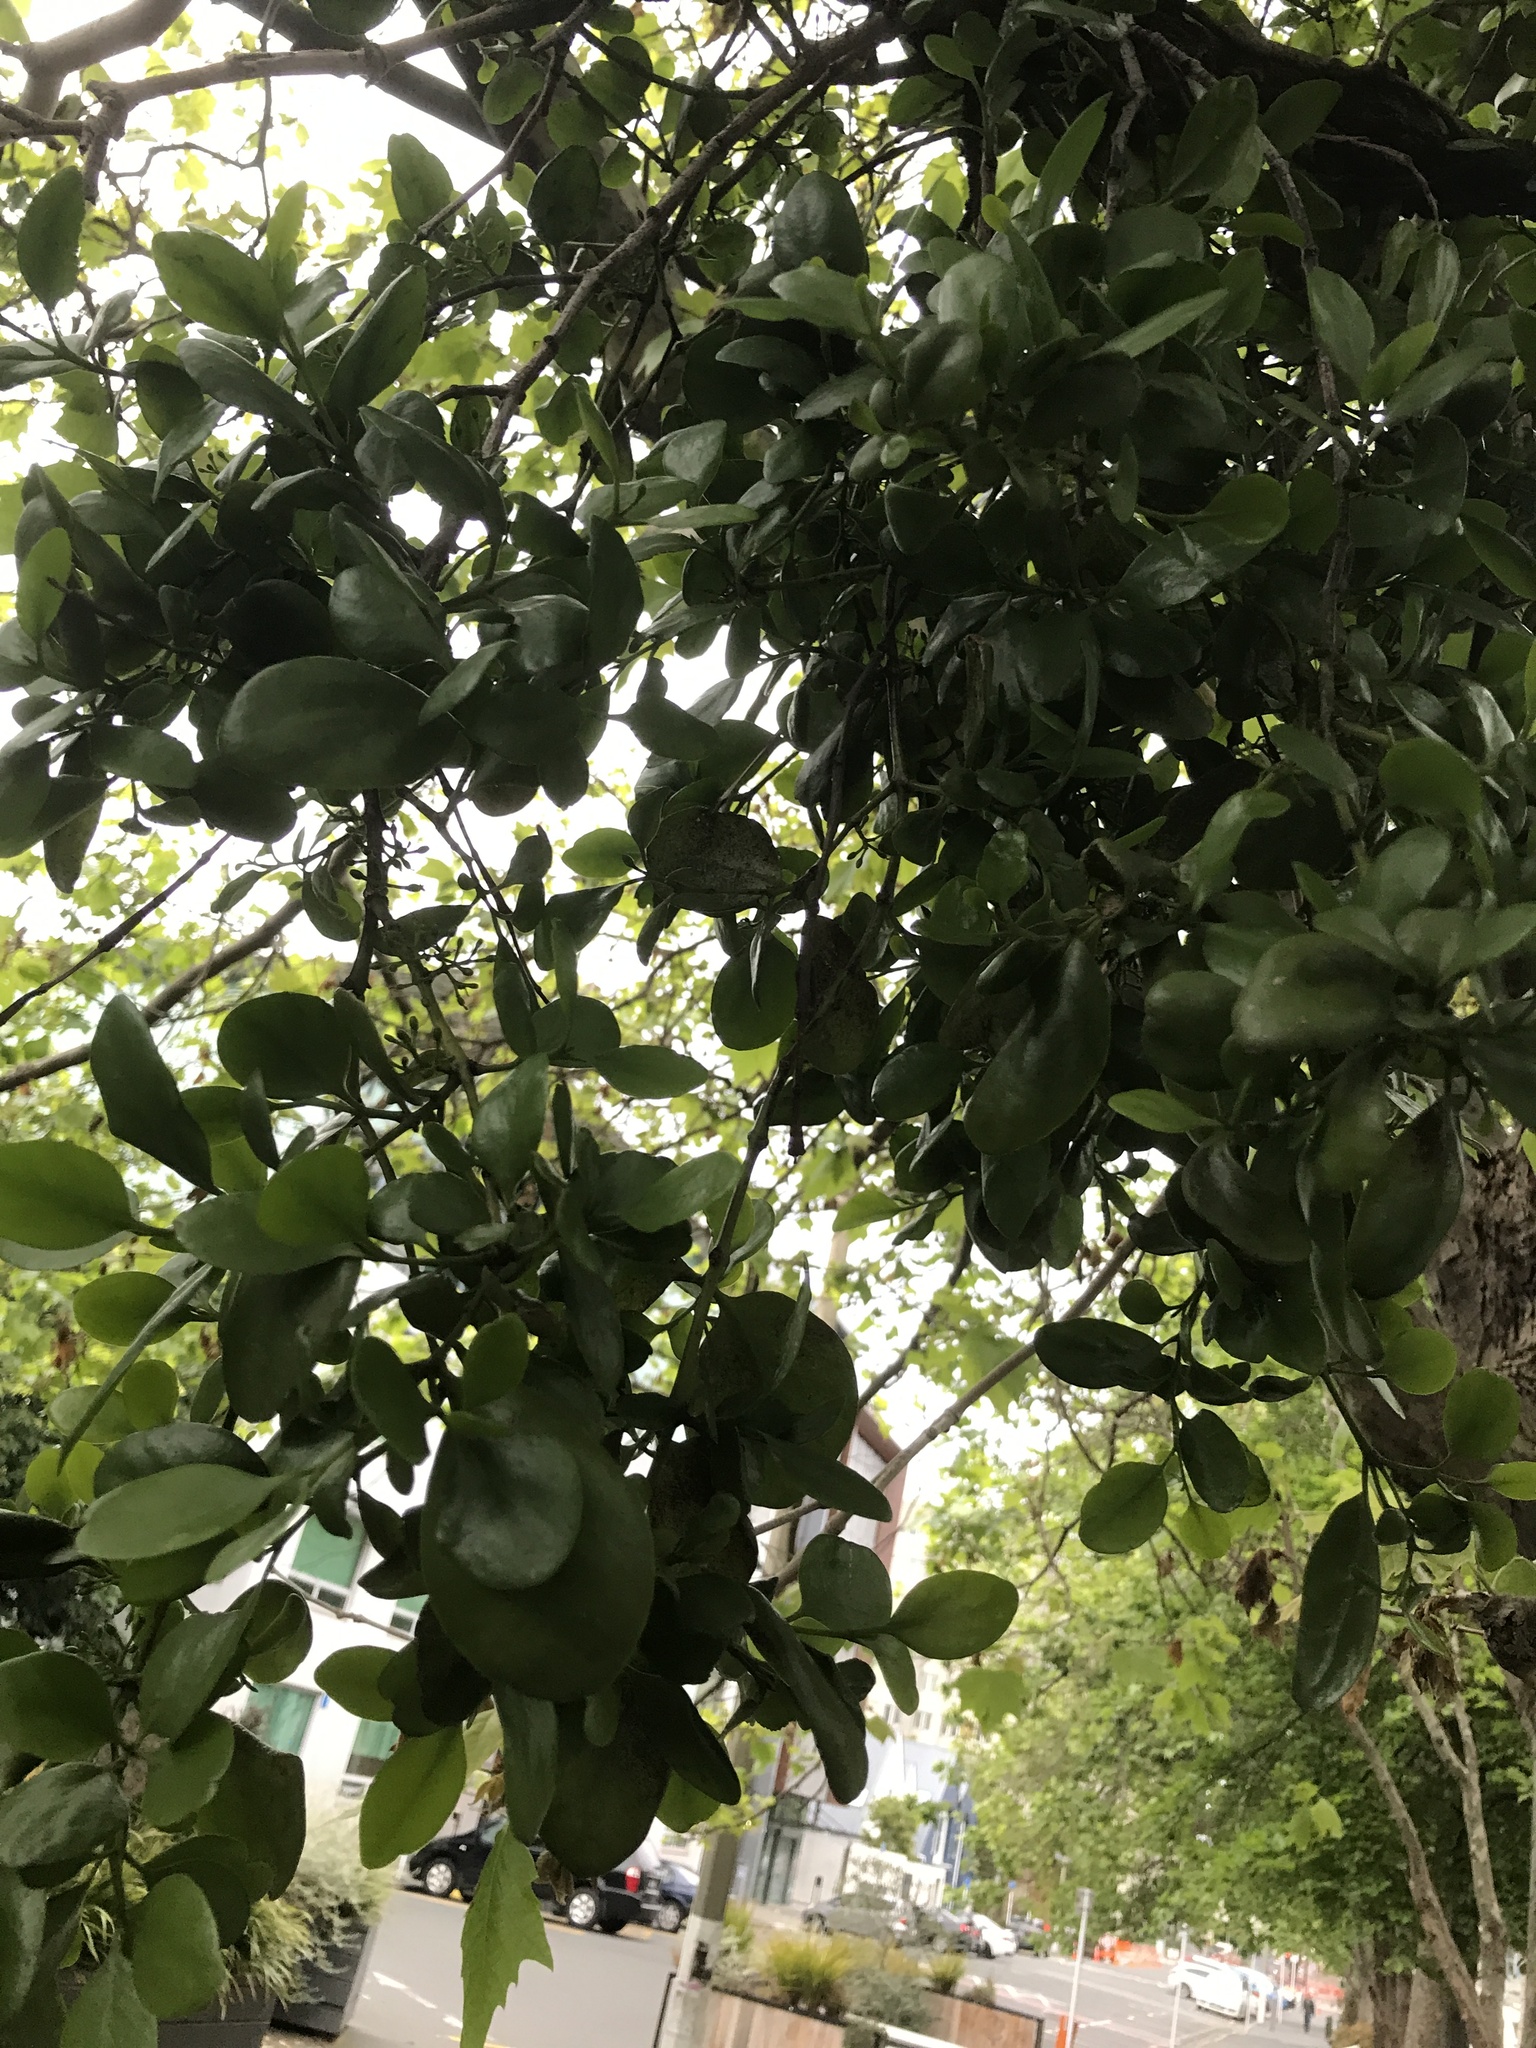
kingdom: Plantae
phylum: Tracheophyta
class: Magnoliopsida
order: Santalales
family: Loranthaceae
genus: Ileostylus
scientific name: Ileostylus micranthus
